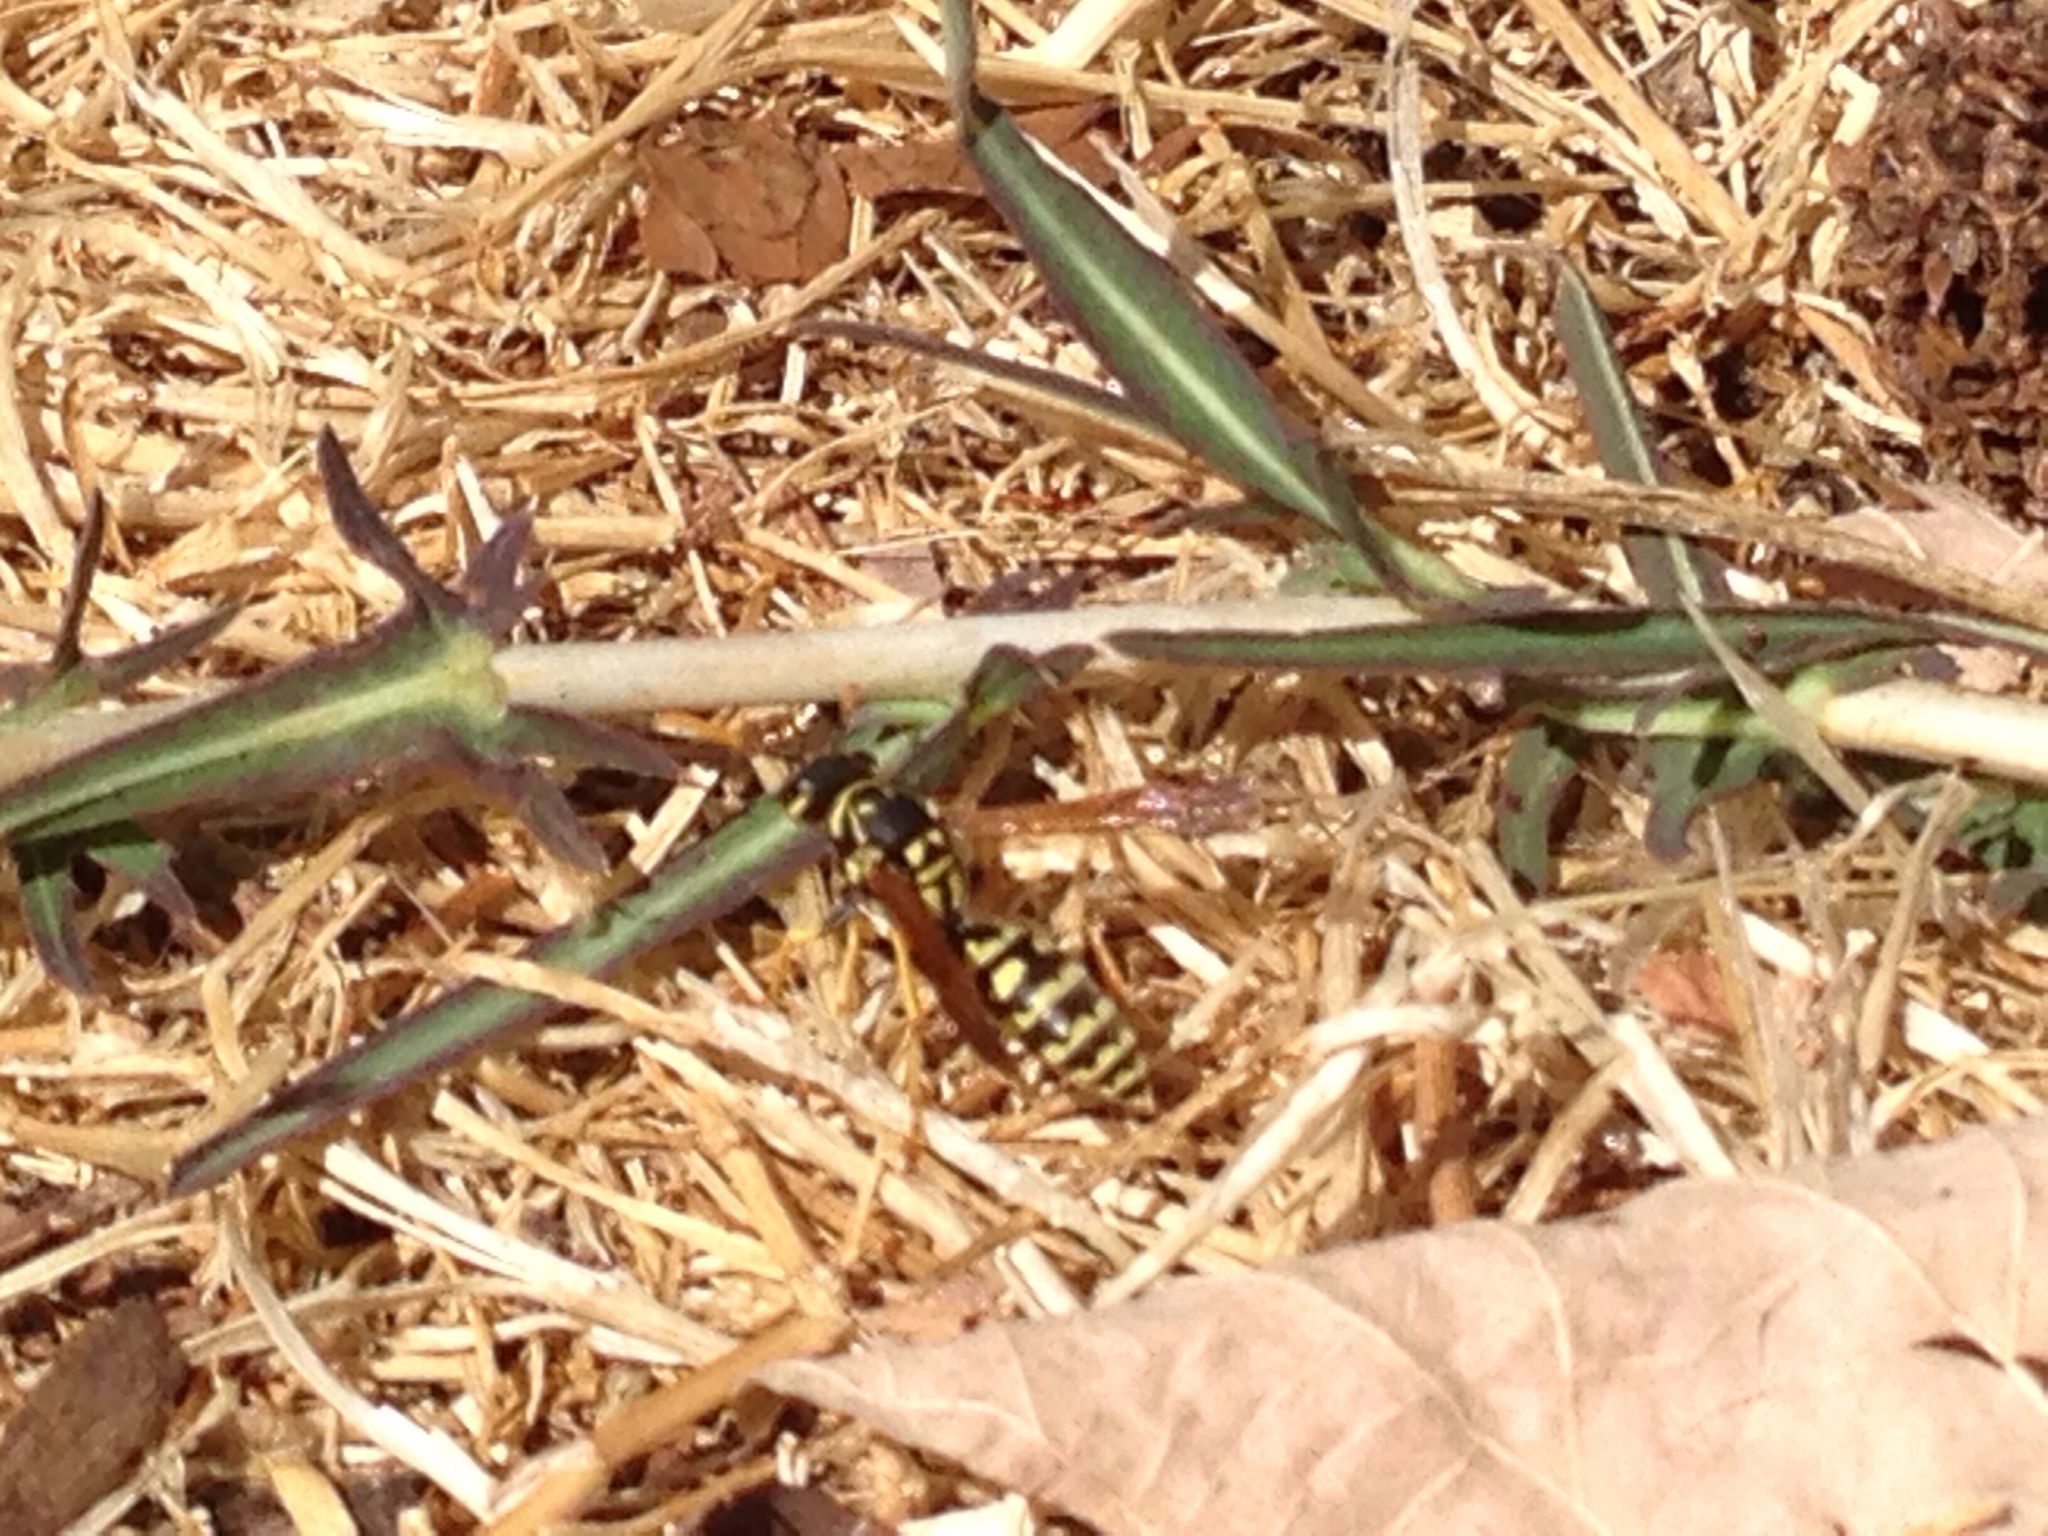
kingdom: Animalia
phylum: Arthropoda
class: Insecta
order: Hymenoptera
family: Eumenidae
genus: Polistes
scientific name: Polistes dominula
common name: Paper wasp
